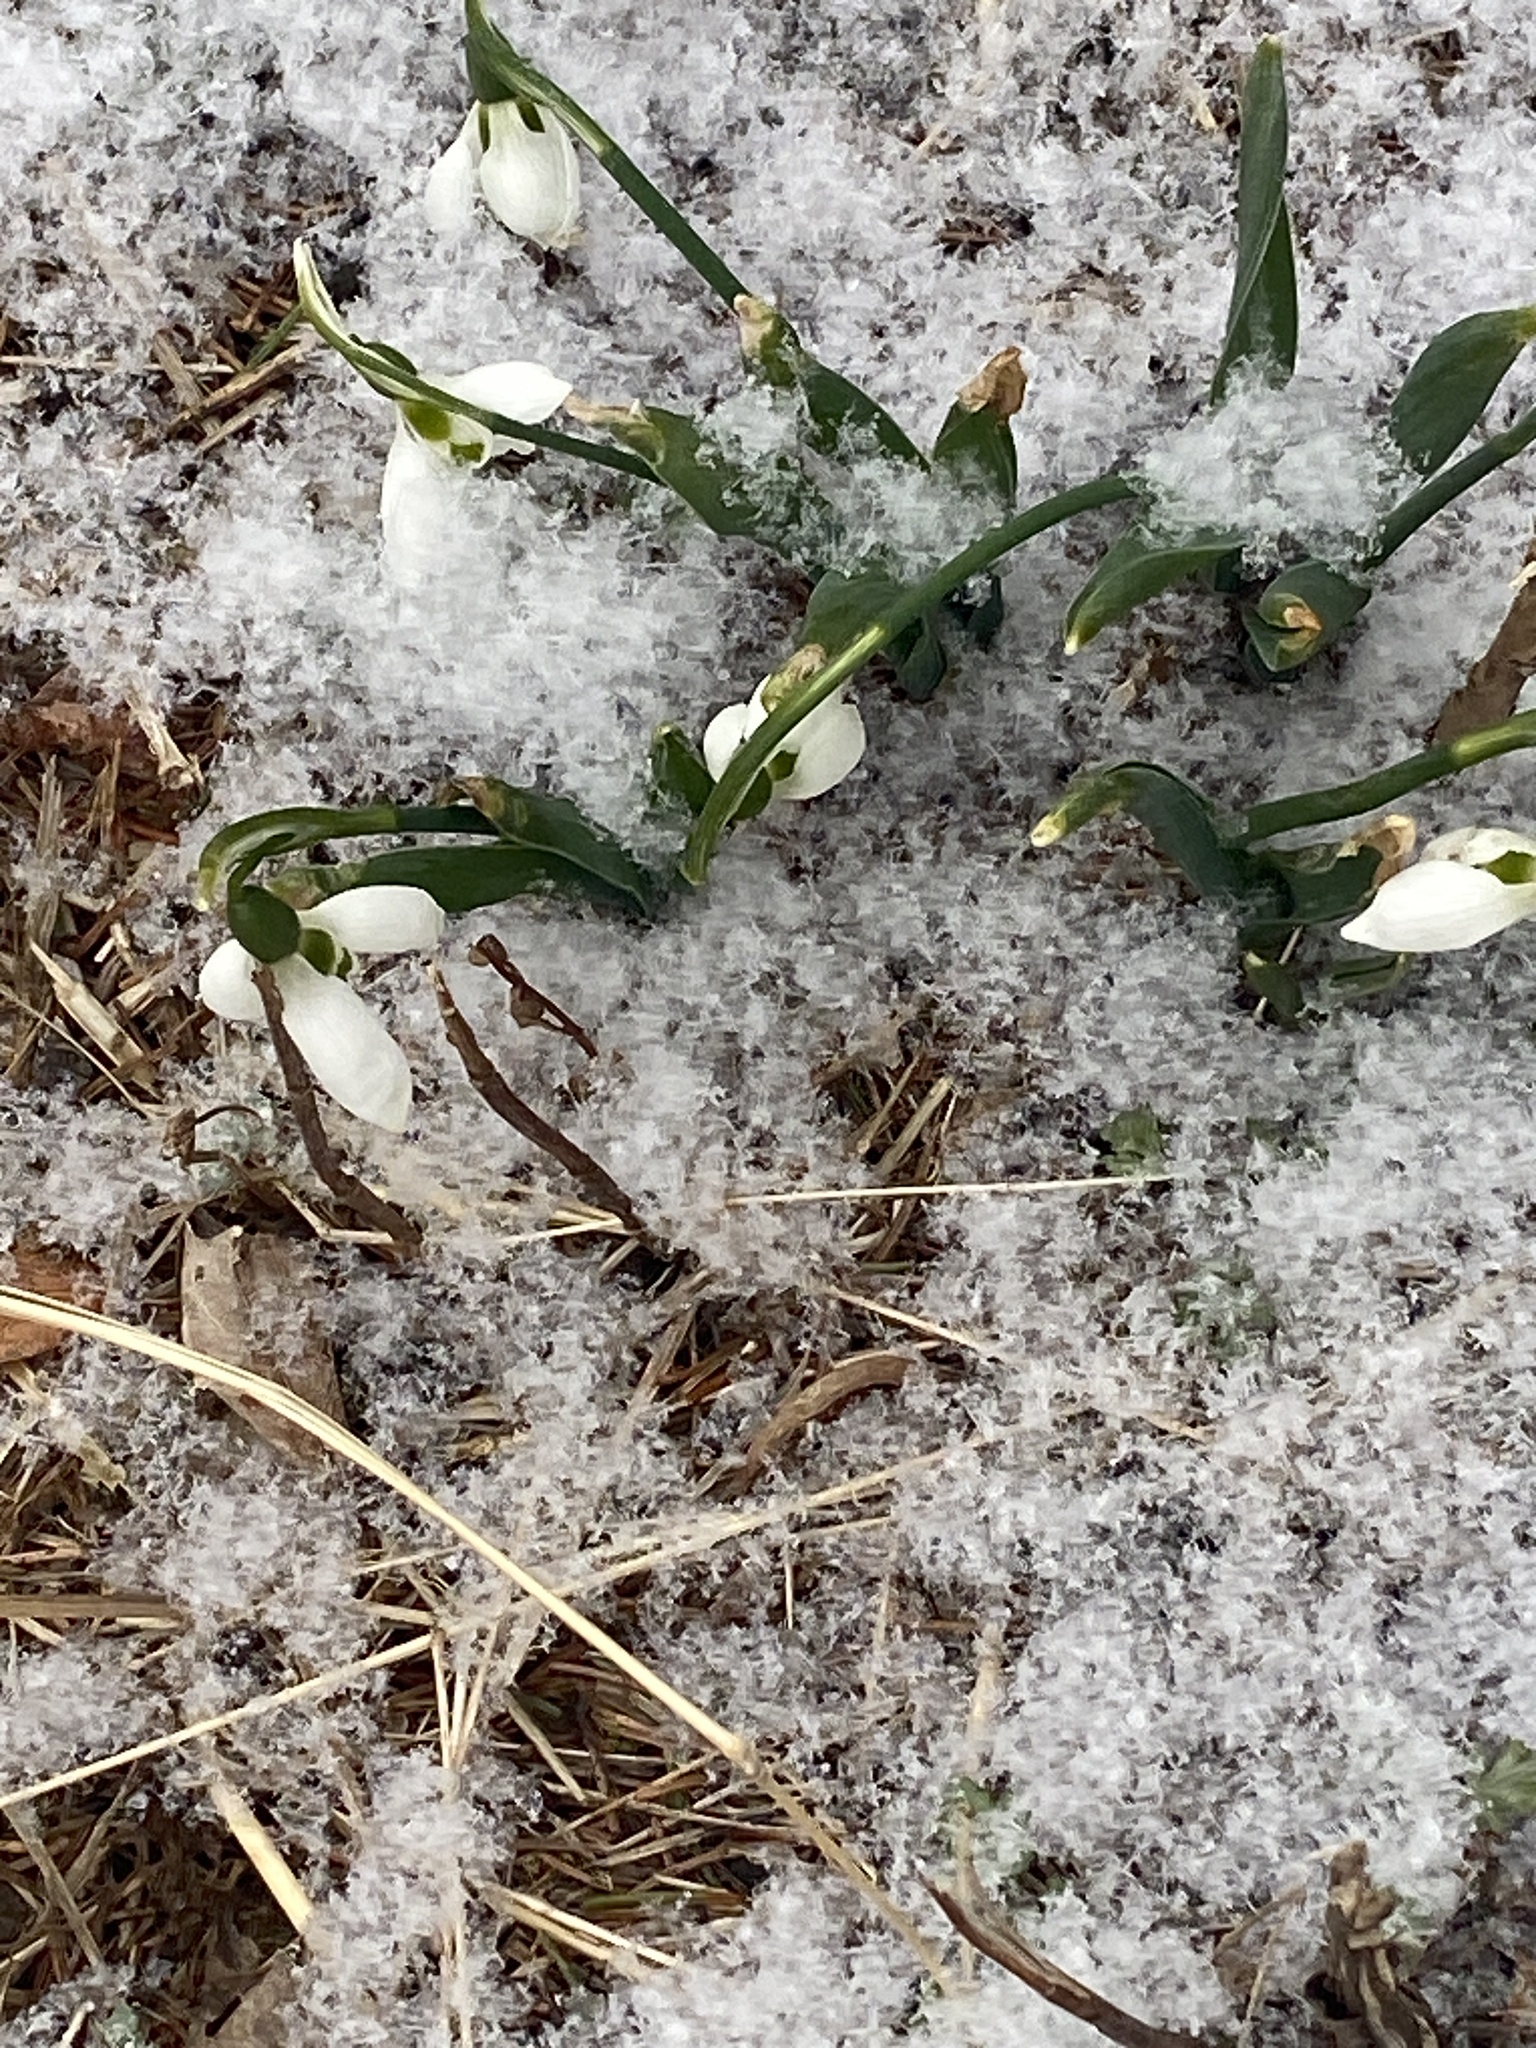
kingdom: Plantae
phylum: Tracheophyta
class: Liliopsida
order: Asparagales
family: Amaryllidaceae
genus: Galanthus
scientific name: Galanthus elwesii
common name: Greater snowdrop
